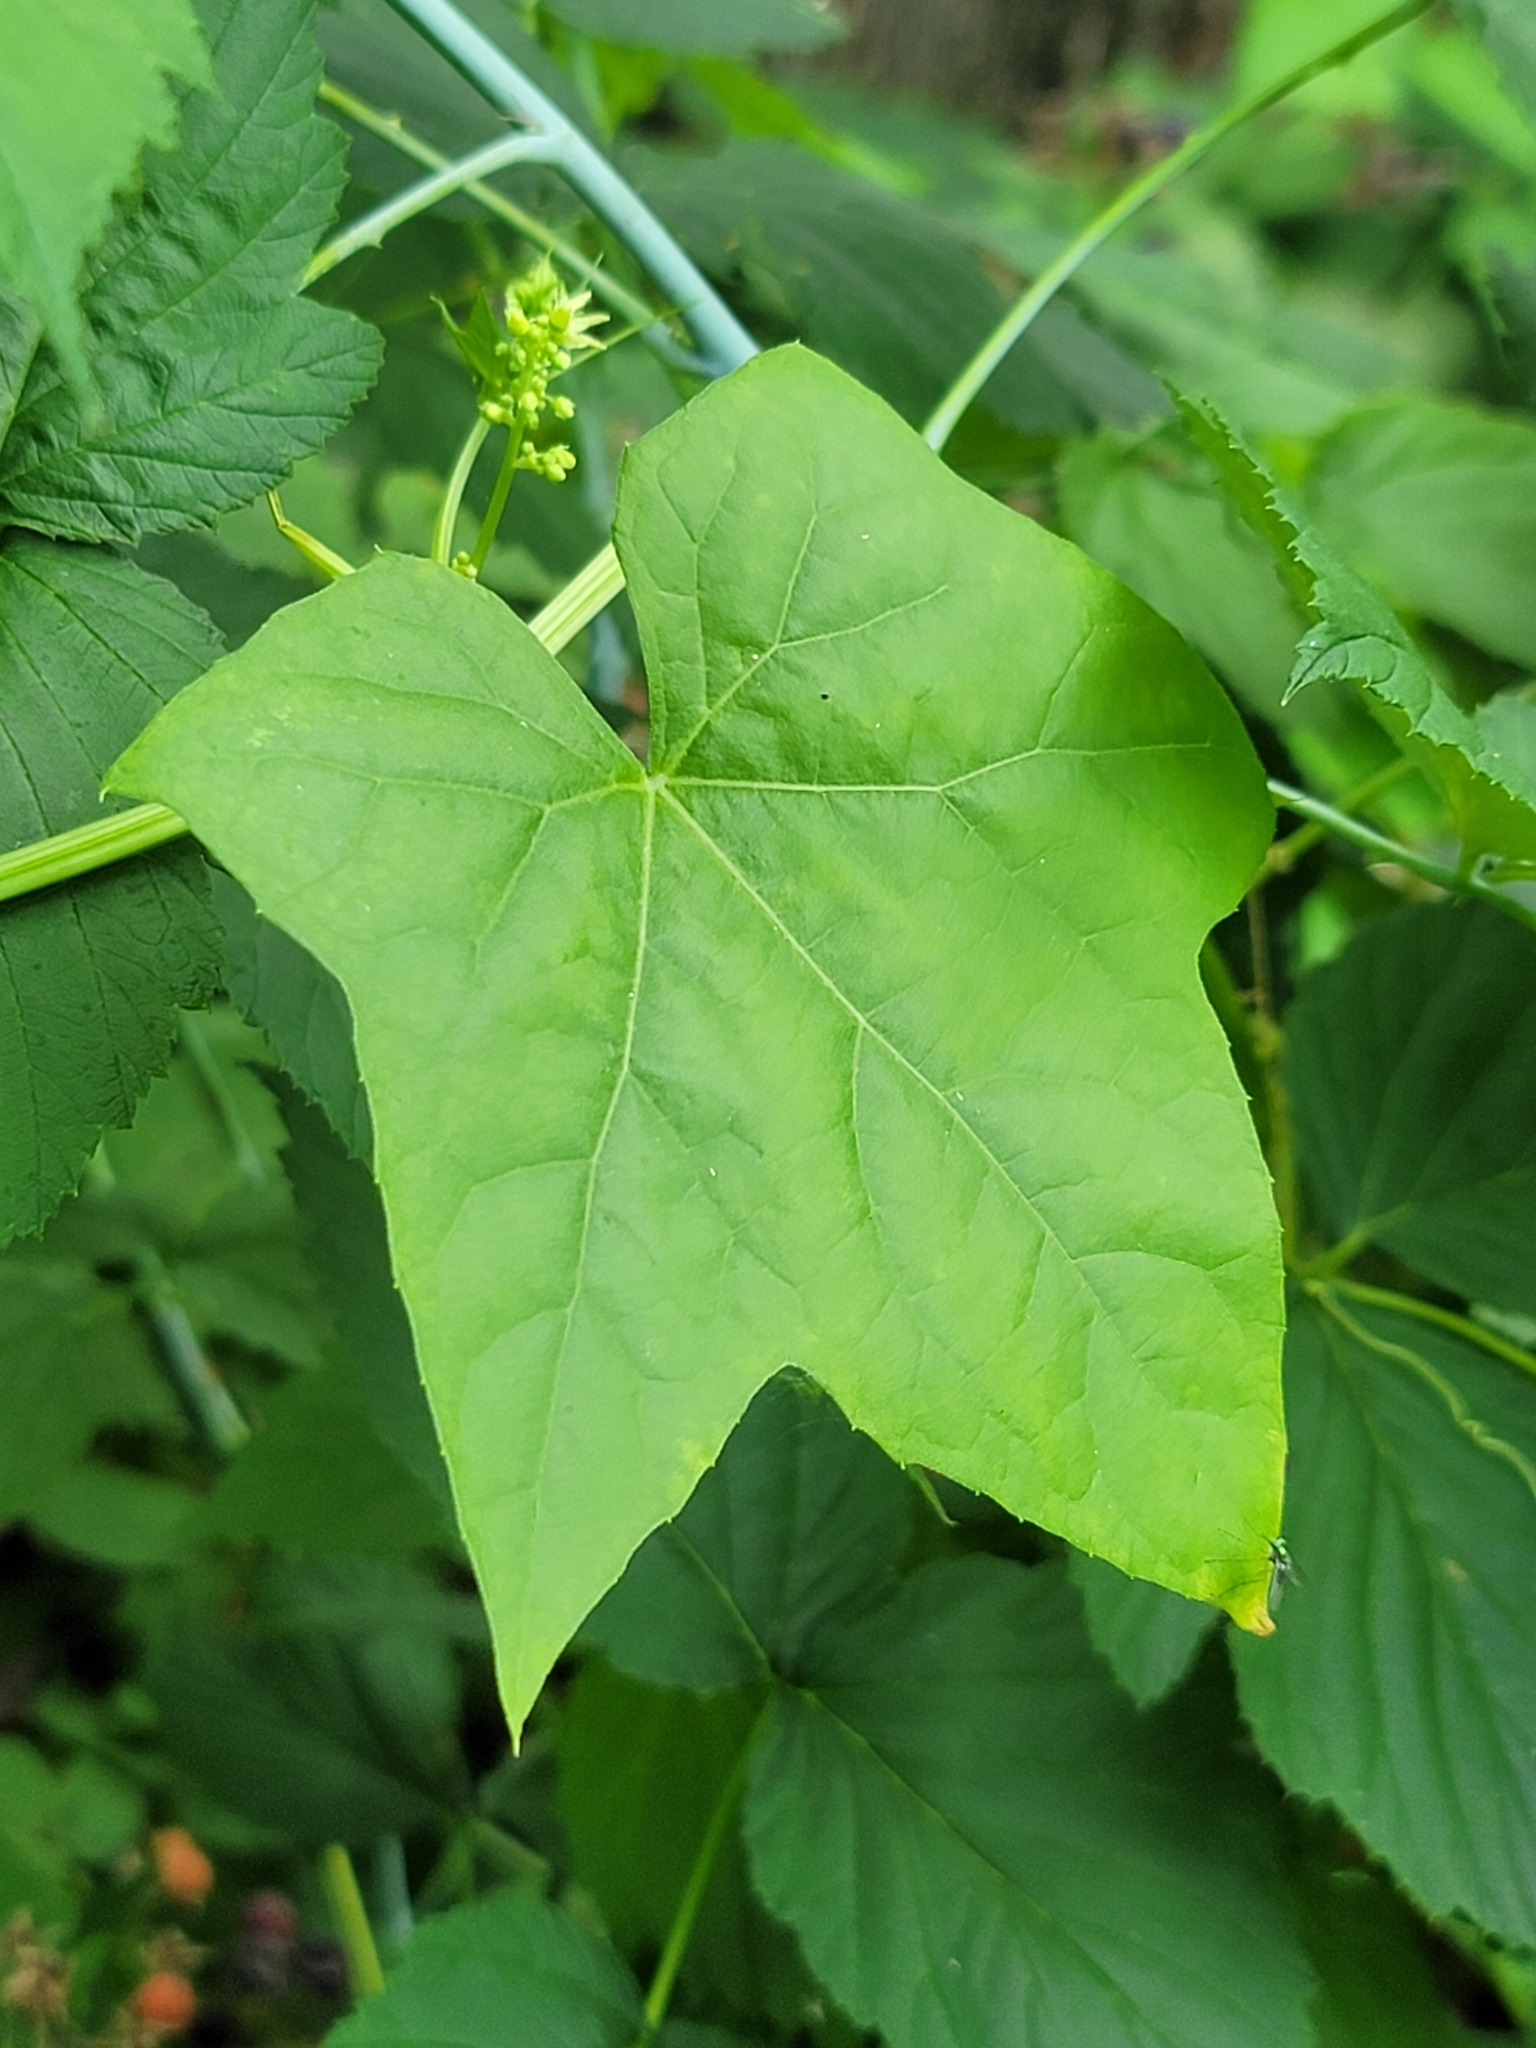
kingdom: Plantae
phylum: Tracheophyta
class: Magnoliopsida
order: Cucurbitales
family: Cucurbitaceae
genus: Echinocystis
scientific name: Echinocystis lobata
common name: Wild cucumber
